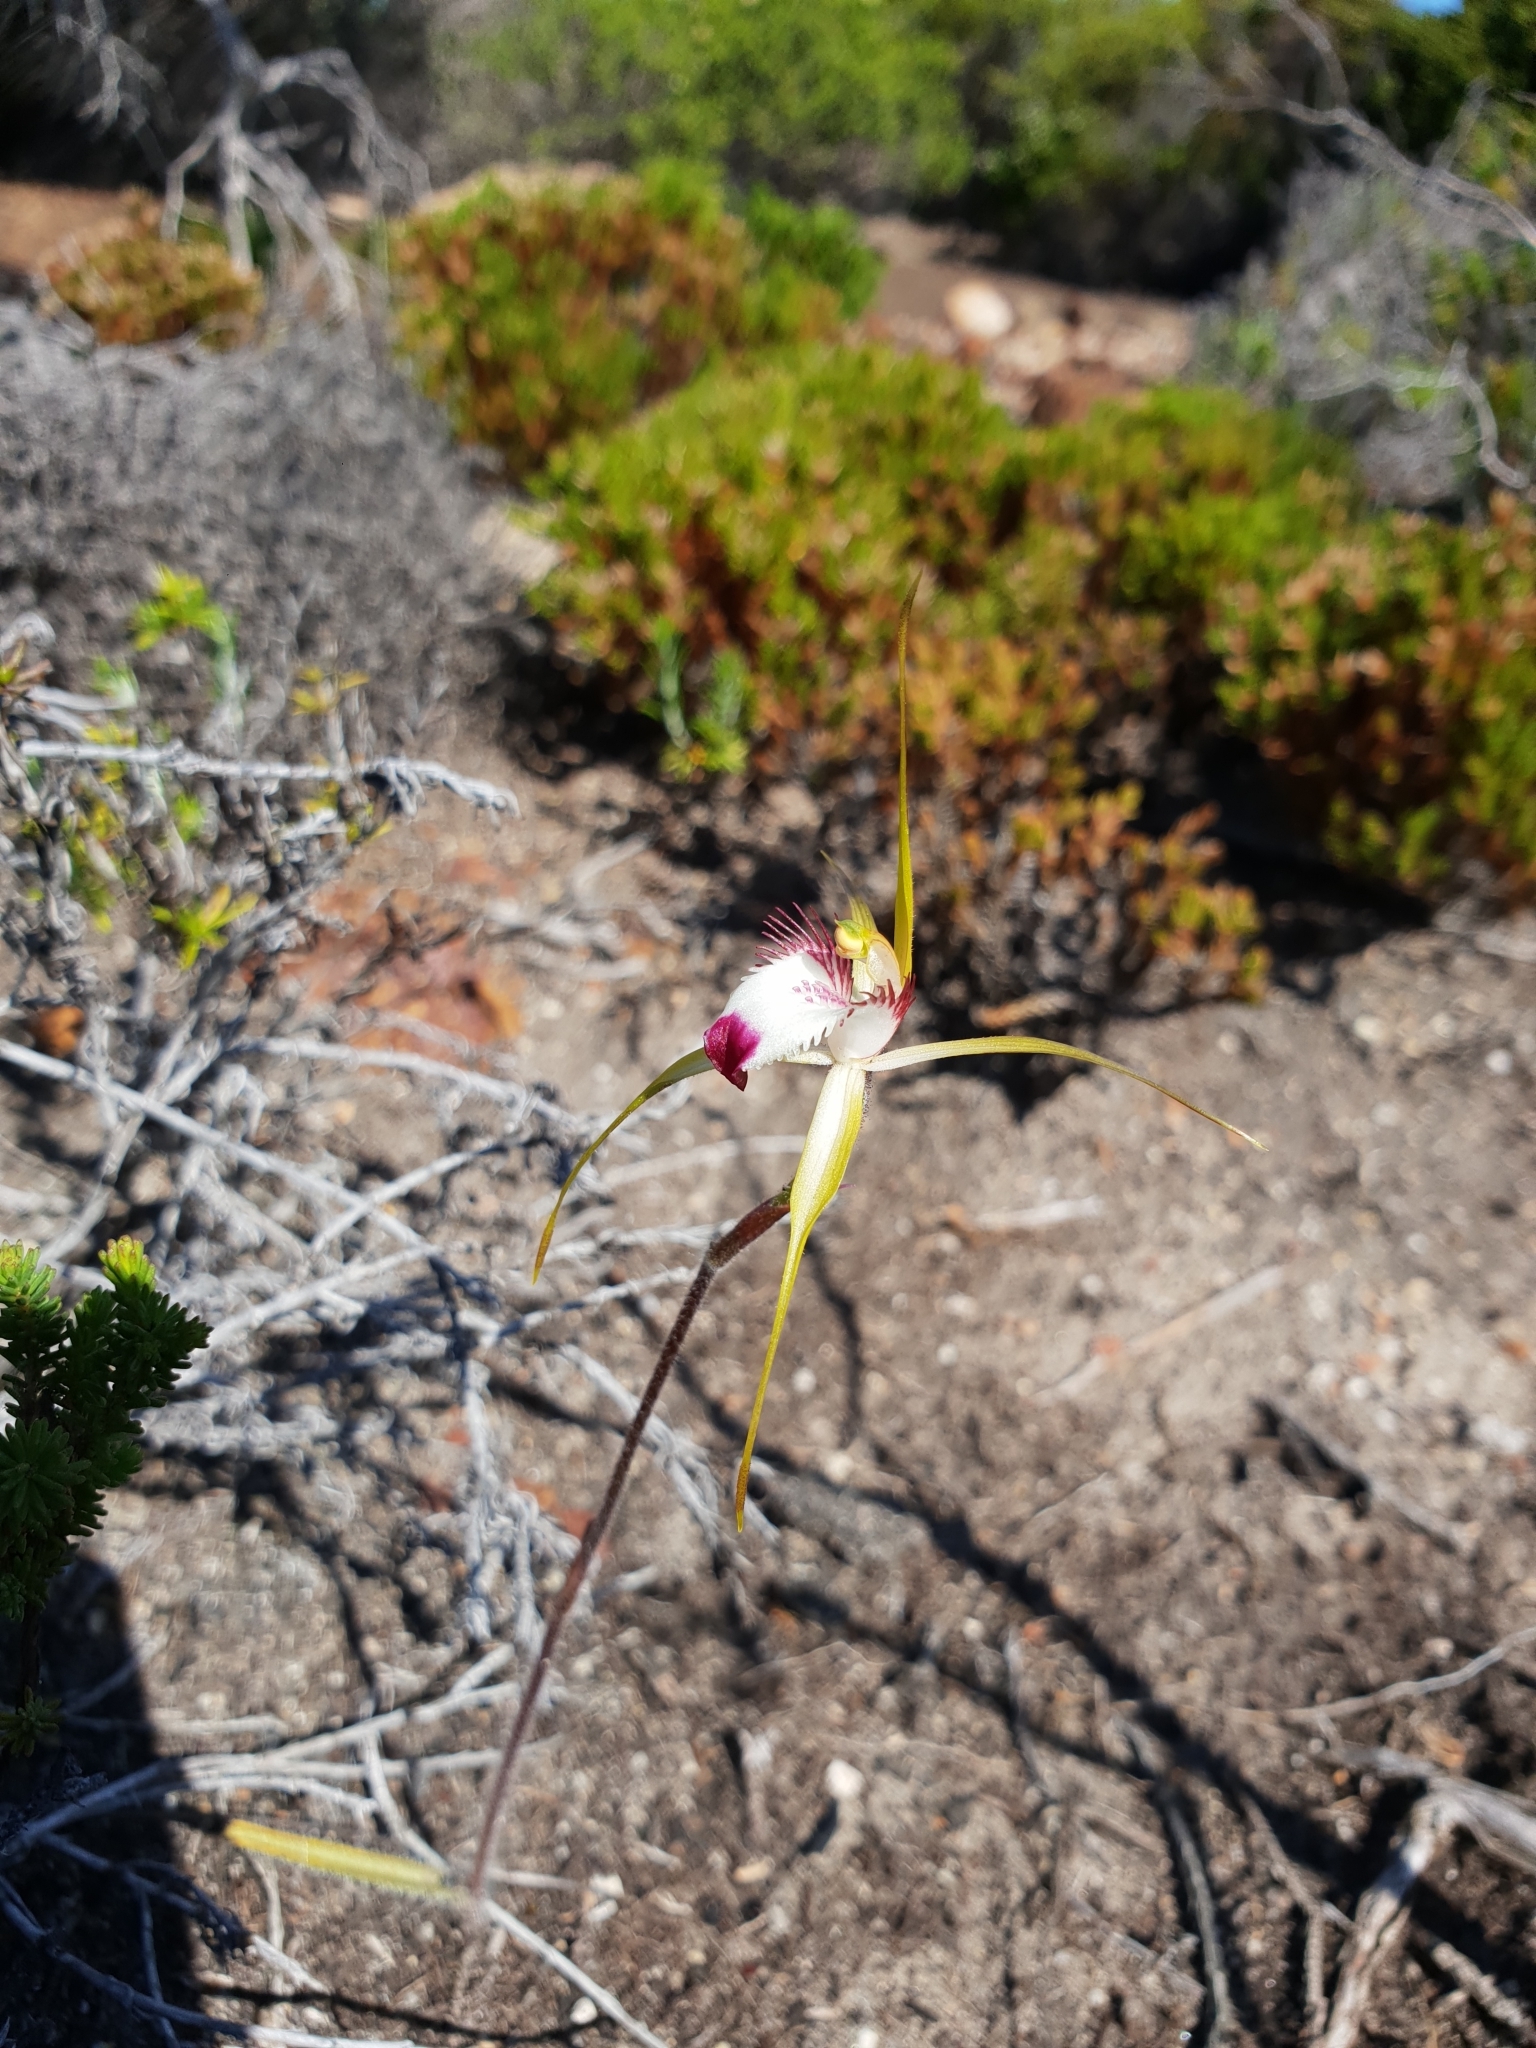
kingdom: Plantae
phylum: Tracheophyta
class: Liliopsida
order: Asparagales
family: Orchidaceae
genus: Caladenia
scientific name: Caladenia granitora
